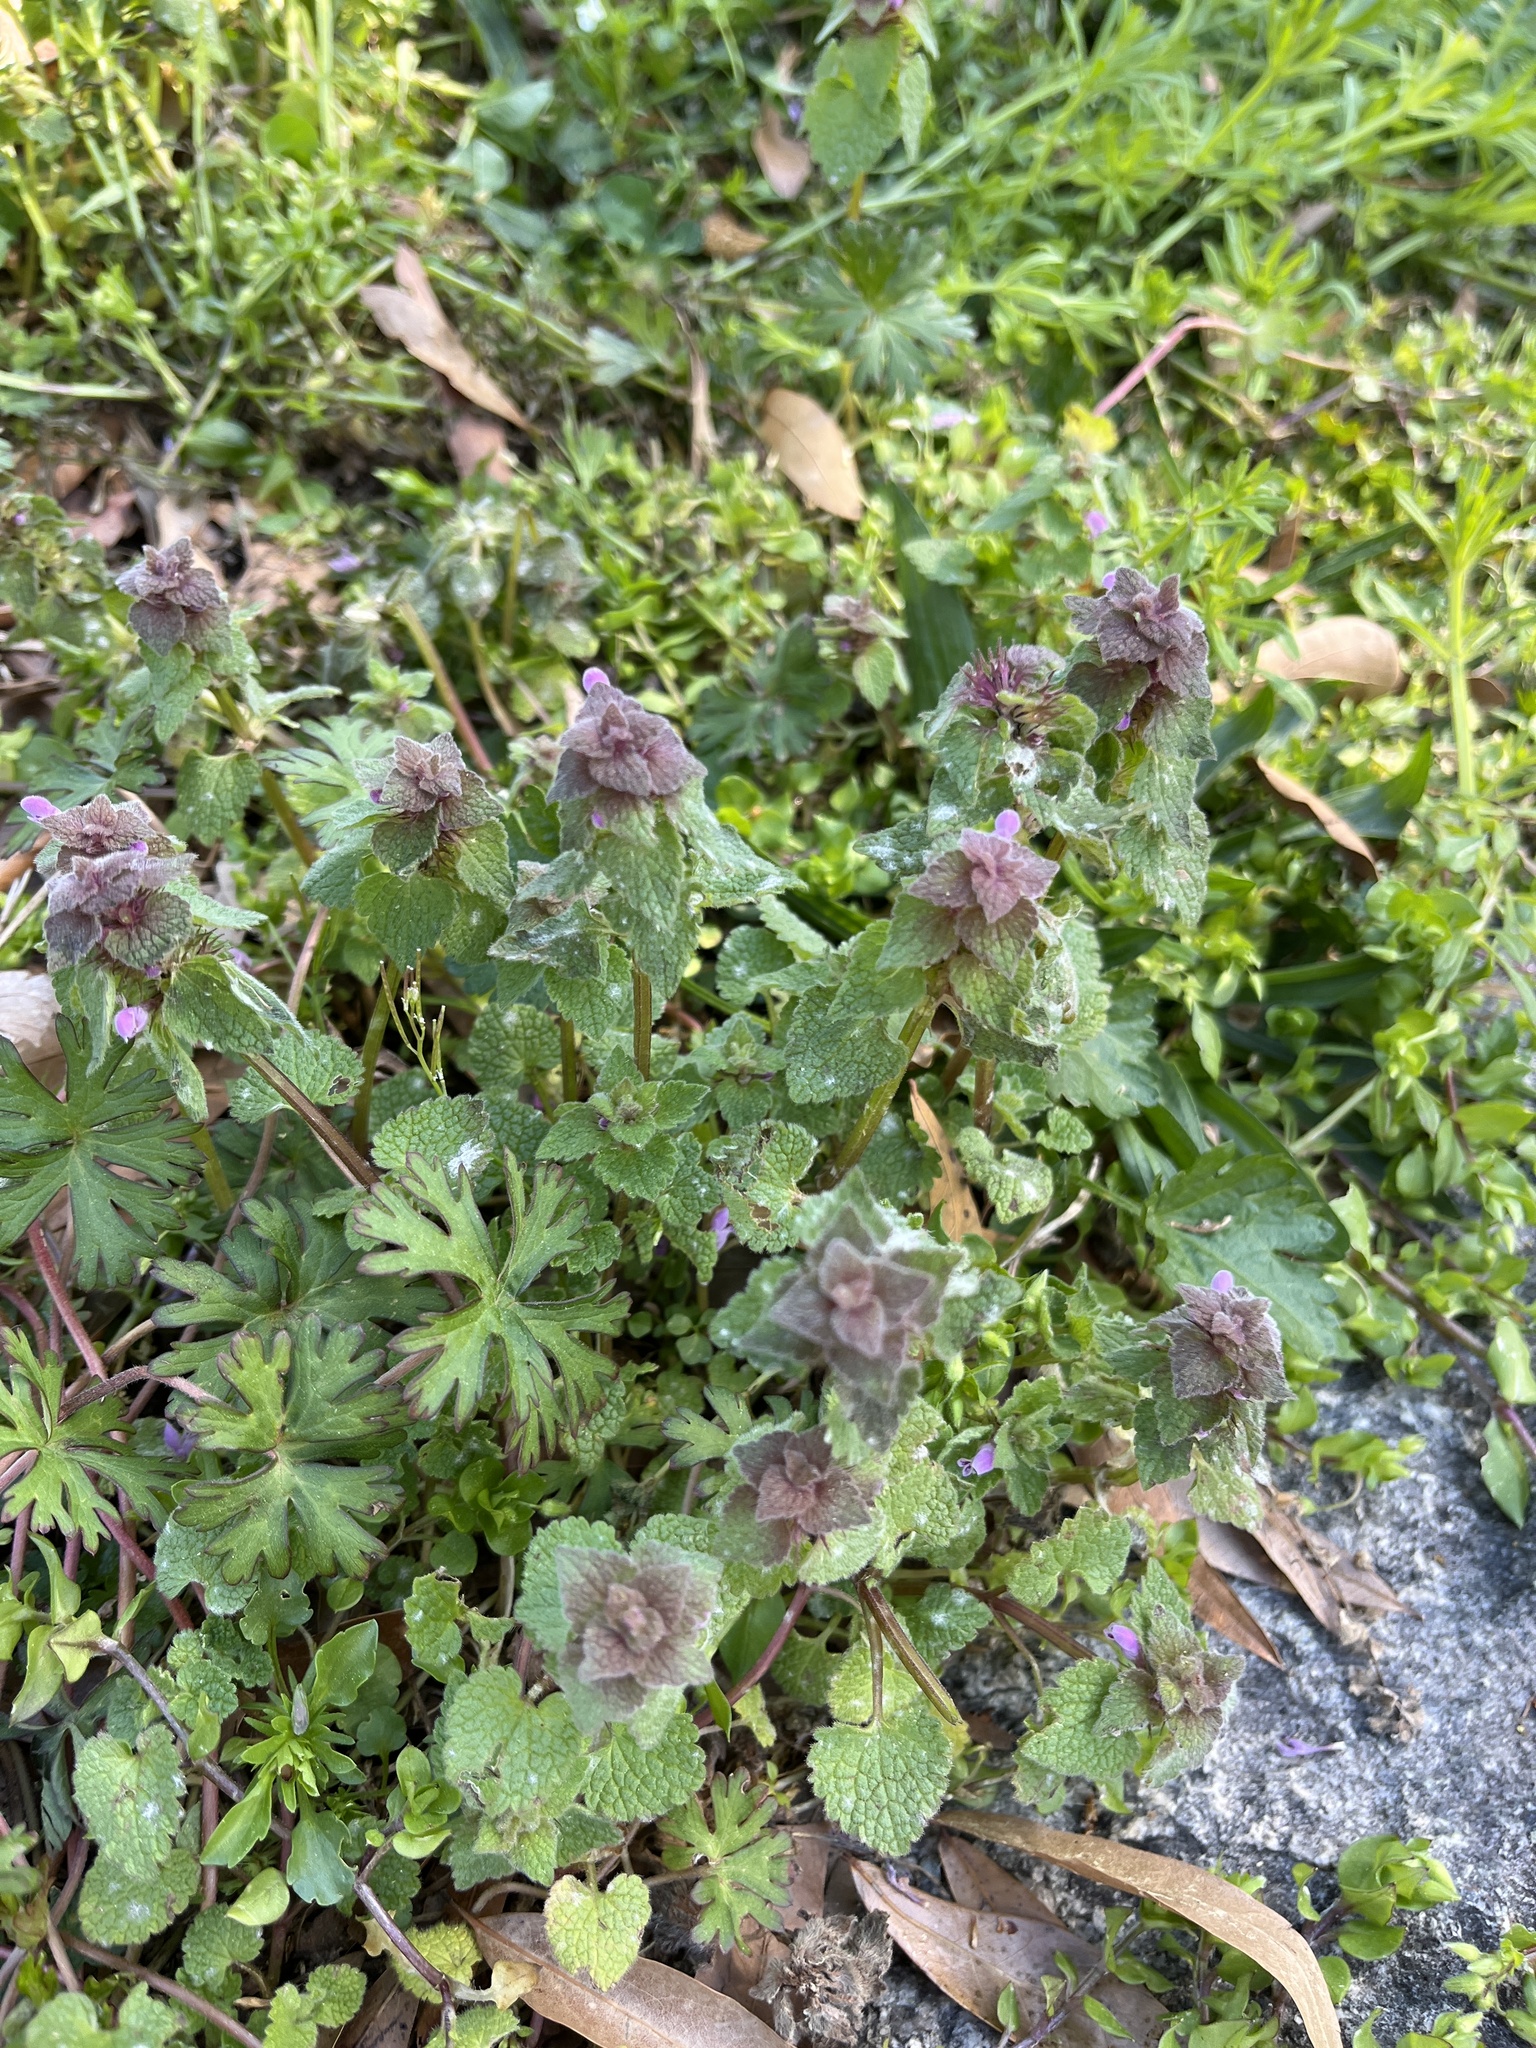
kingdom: Plantae
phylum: Tracheophyta
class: Magnoliopsida
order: Lamiales
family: Lamiaceae
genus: Lamium
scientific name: Lamium purpureum
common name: Red dead-nettle
